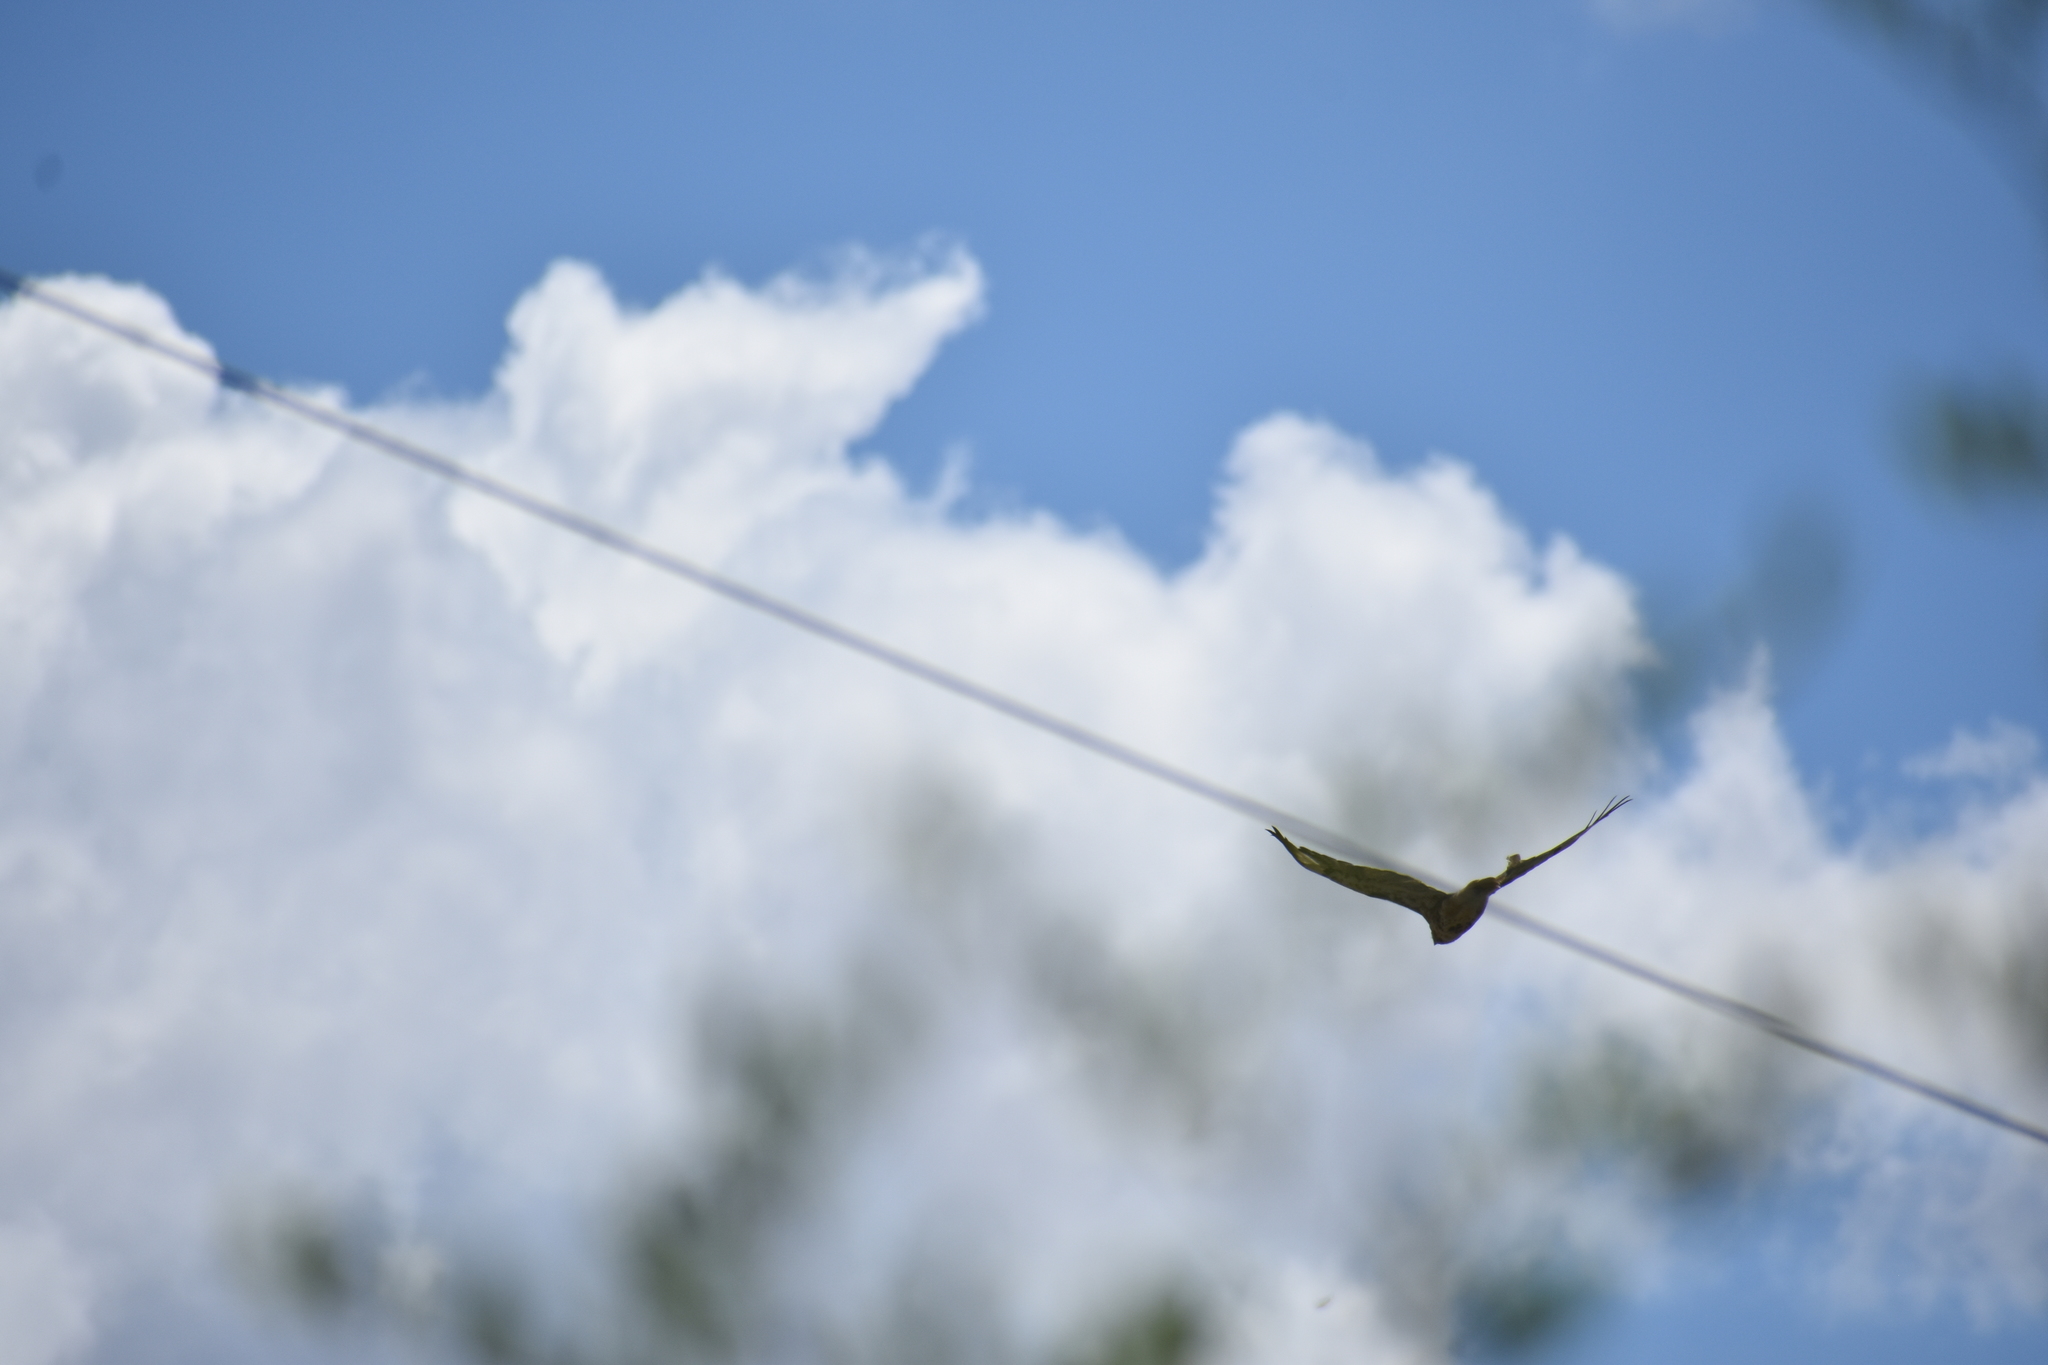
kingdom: Animalia
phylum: Chordata
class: Aves
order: Accipitriformes
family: Accipitridae
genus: Buteo
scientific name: Buteo jamaicensis
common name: Red-tailed hawk
